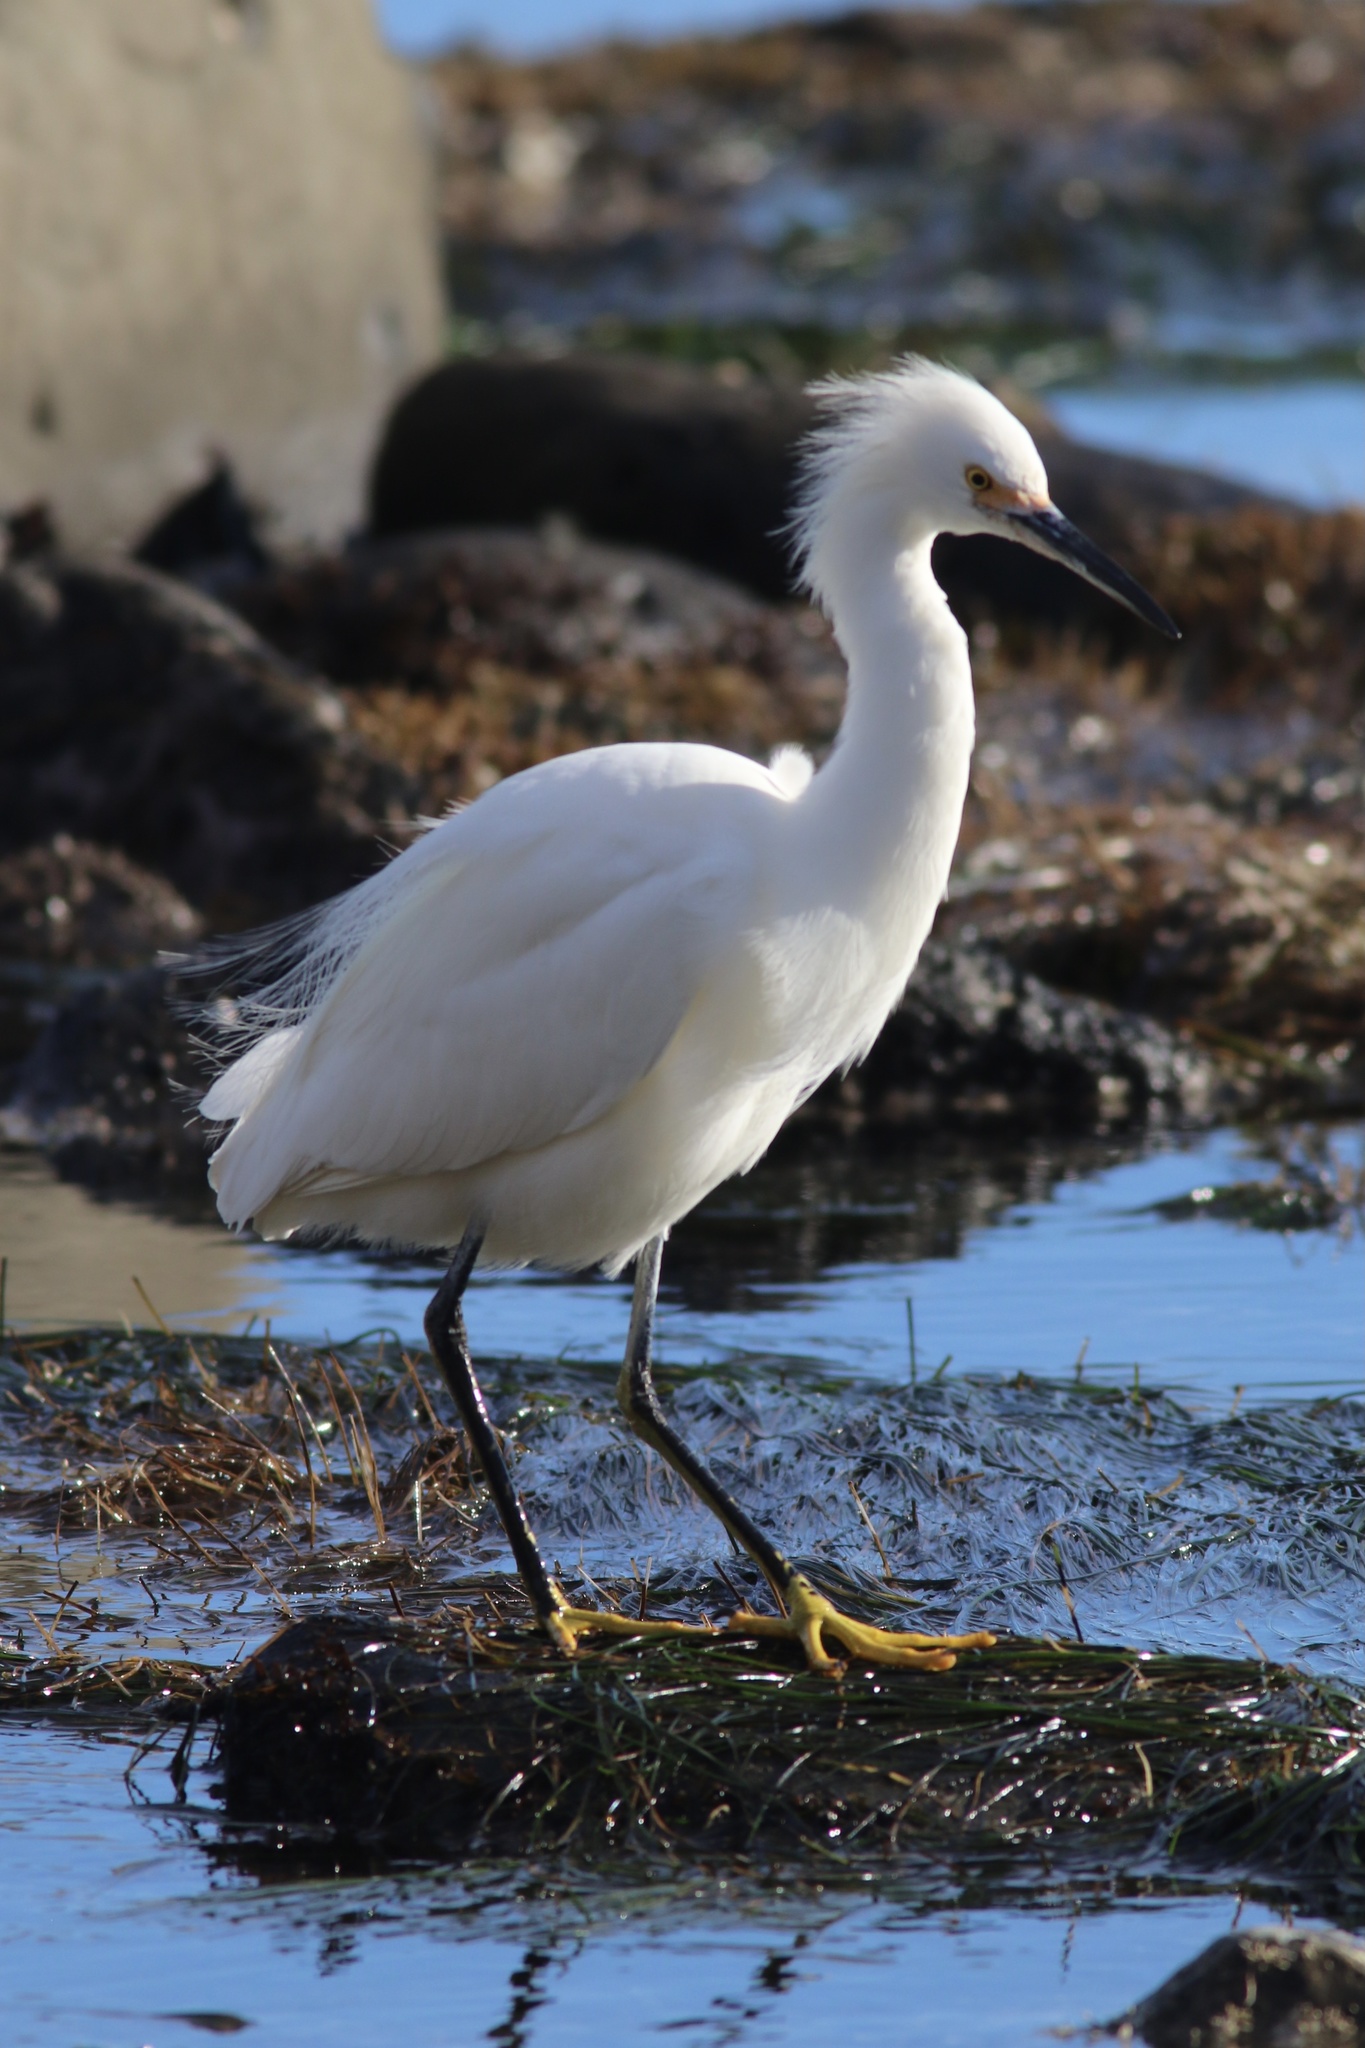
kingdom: Animalia
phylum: Chordata
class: Aves
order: Pelecaniformes
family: Ardeidae
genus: Egretta
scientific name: Egretta thula
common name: Snowy egret
